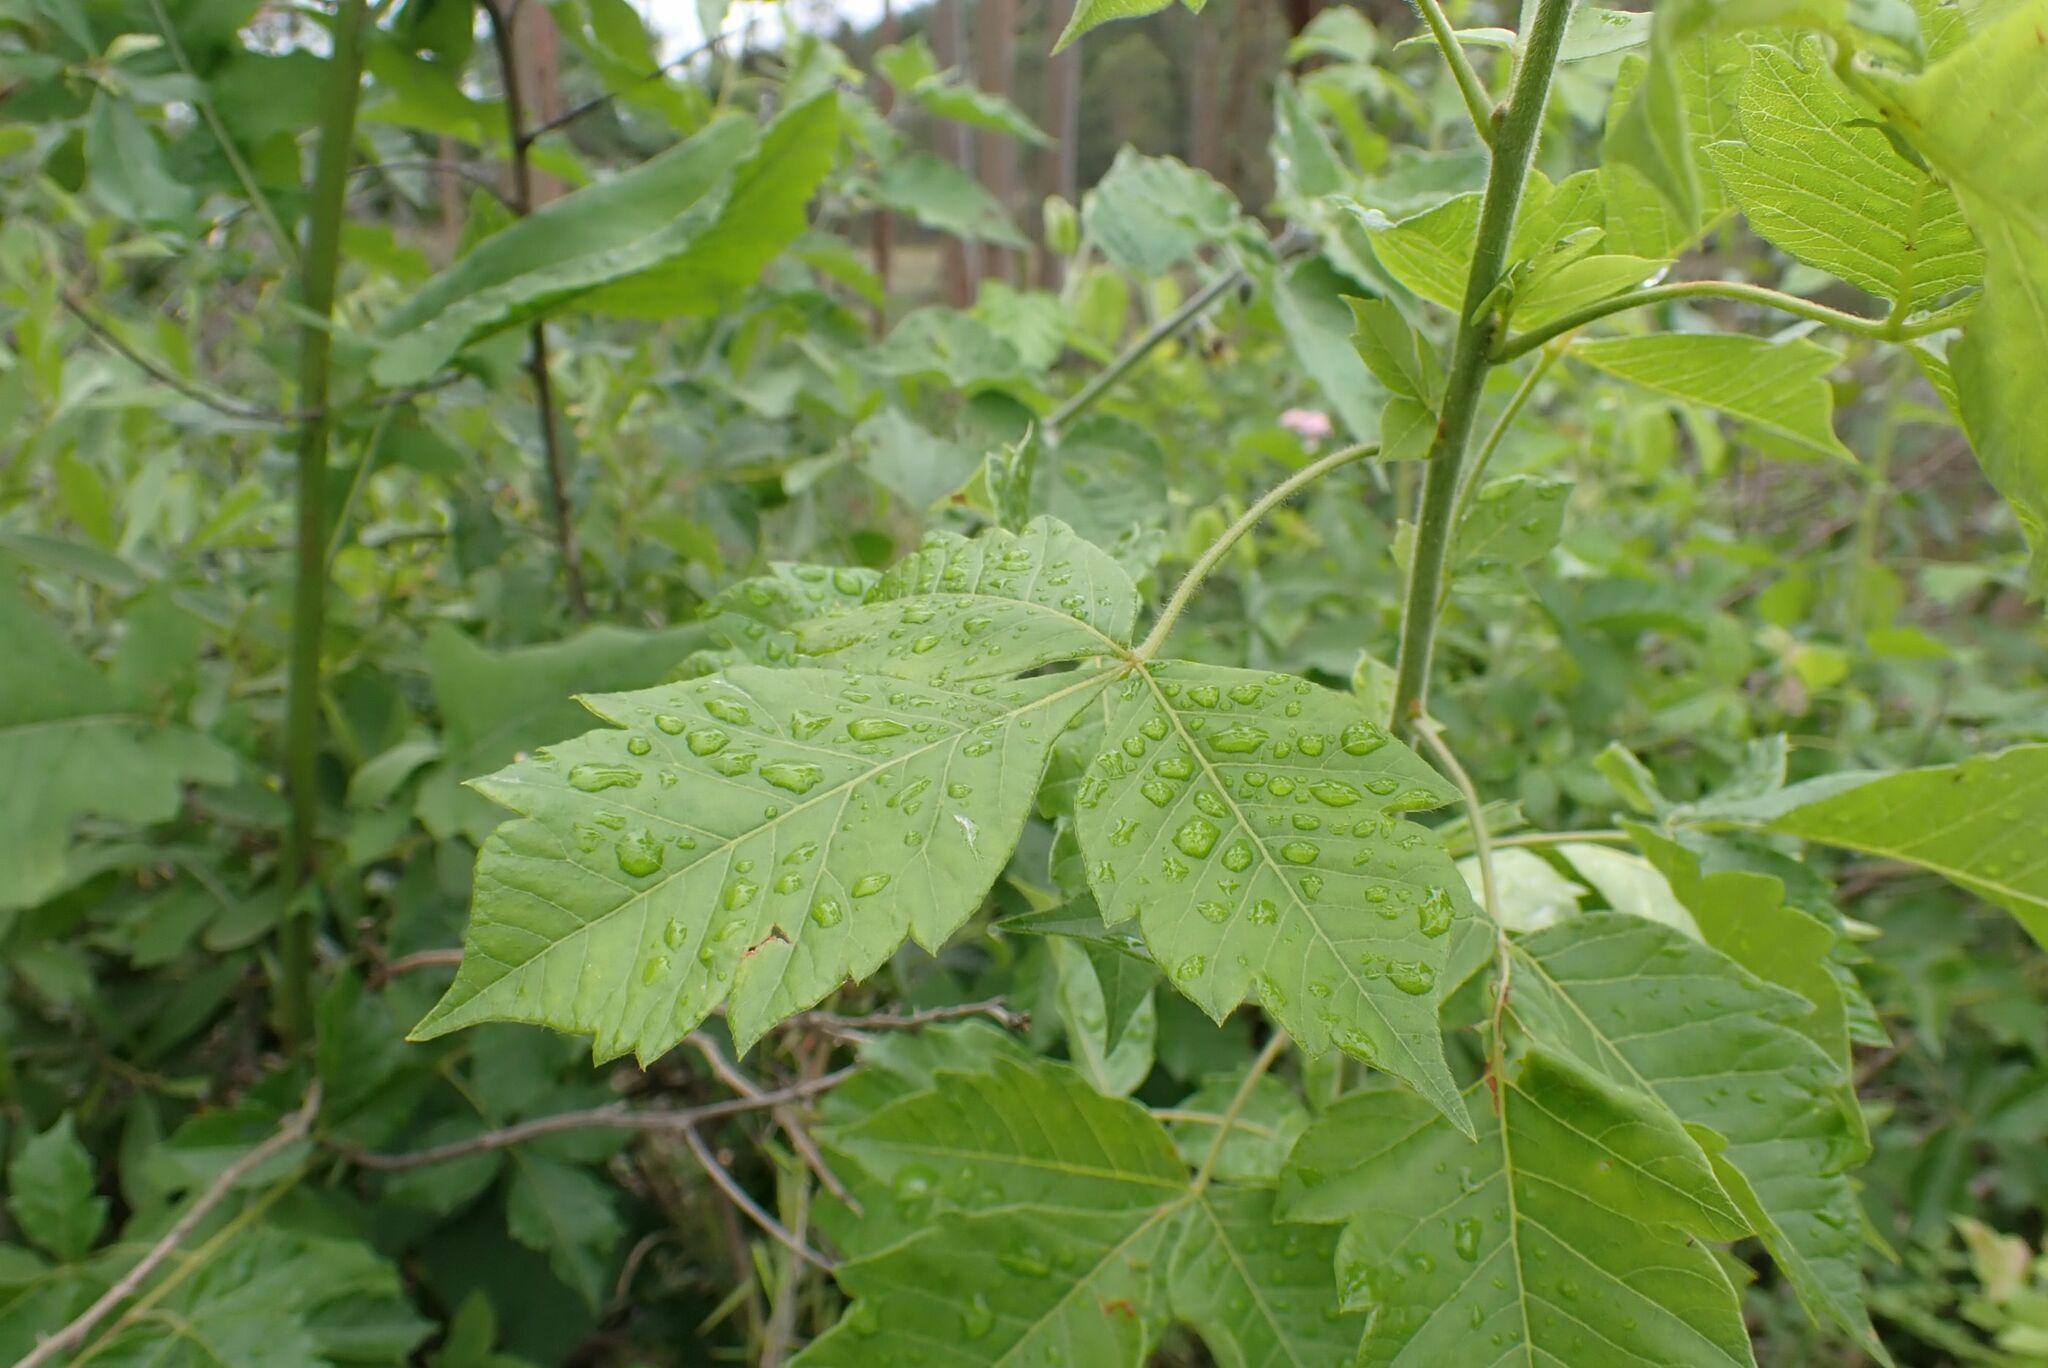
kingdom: Plantae
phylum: Tracheophyta
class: Magnoliopsida
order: Sapindales
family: Anacardiaceae
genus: Searsia
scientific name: Searsia dentata
